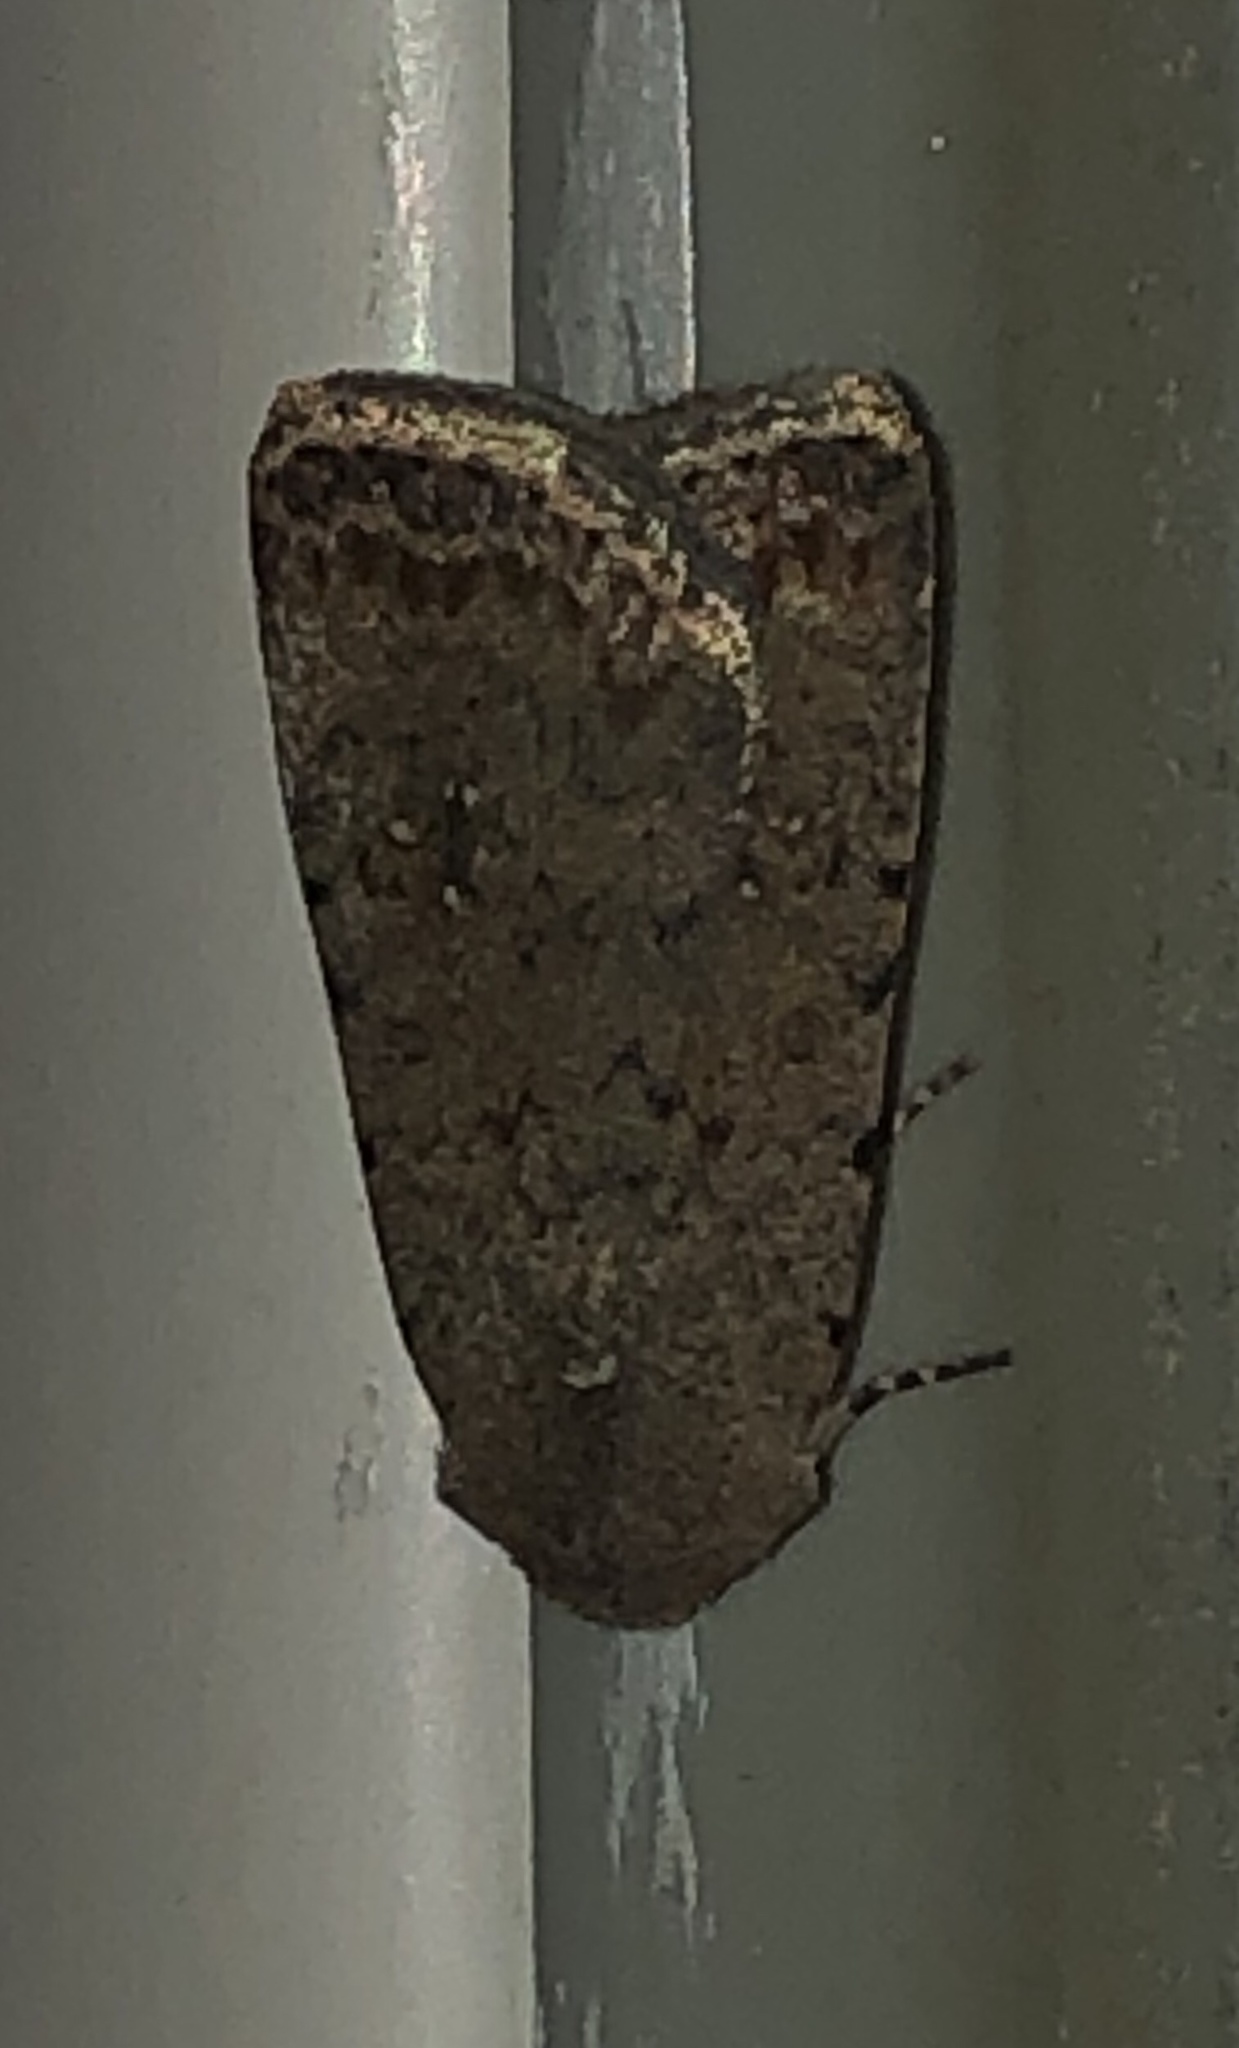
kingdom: Animalia
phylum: Arthropoda
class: Insecta
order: Lepidoptera
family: Noctuidae
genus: Caradrina
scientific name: Caradrina clavipalpis
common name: Pale mottled willow
